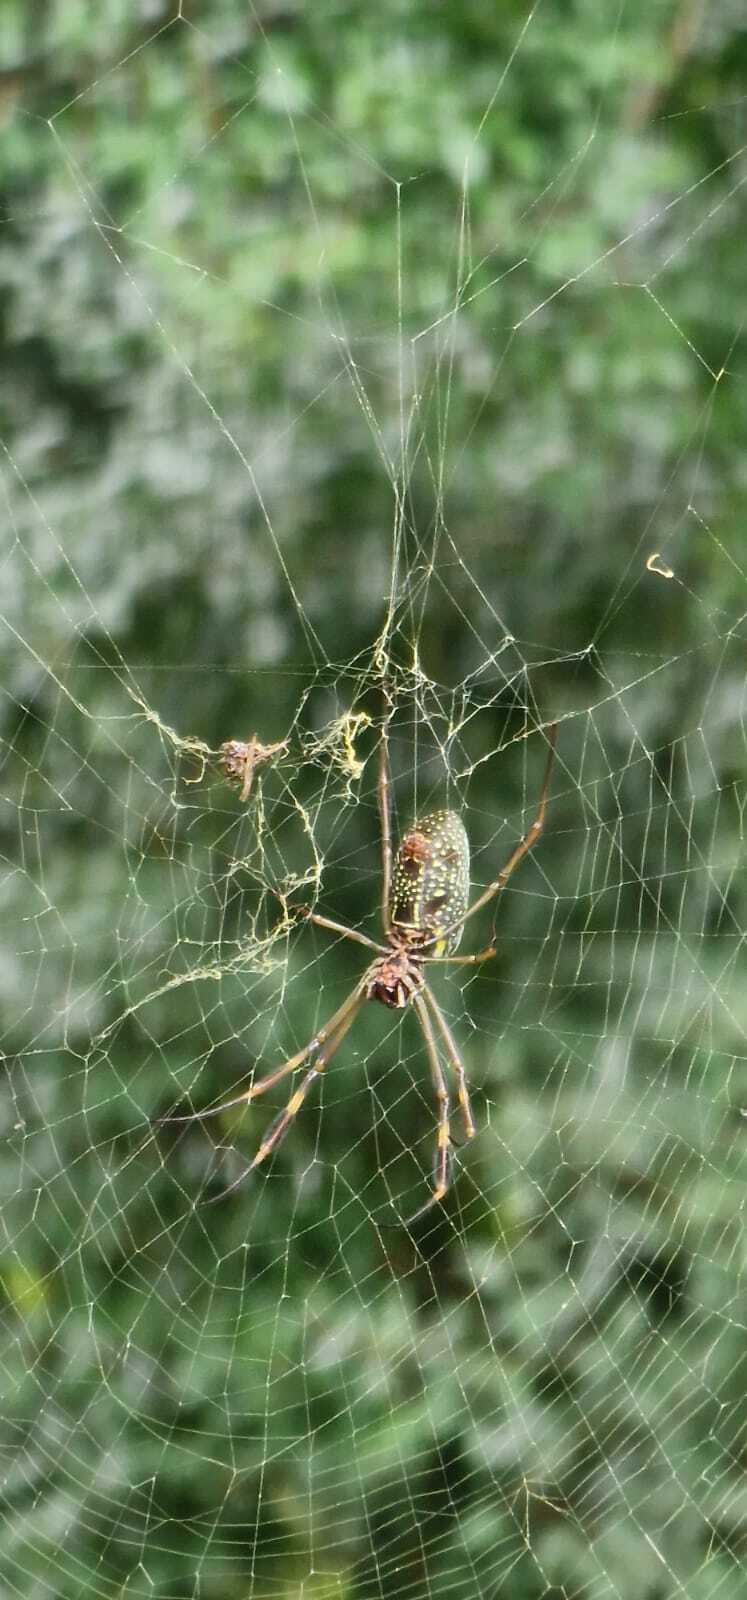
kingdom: Animalia
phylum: Arthropoda
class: Arachnida
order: Araneae
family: Araneidae
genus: Trichonephila
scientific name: Trichonephila clavipes
